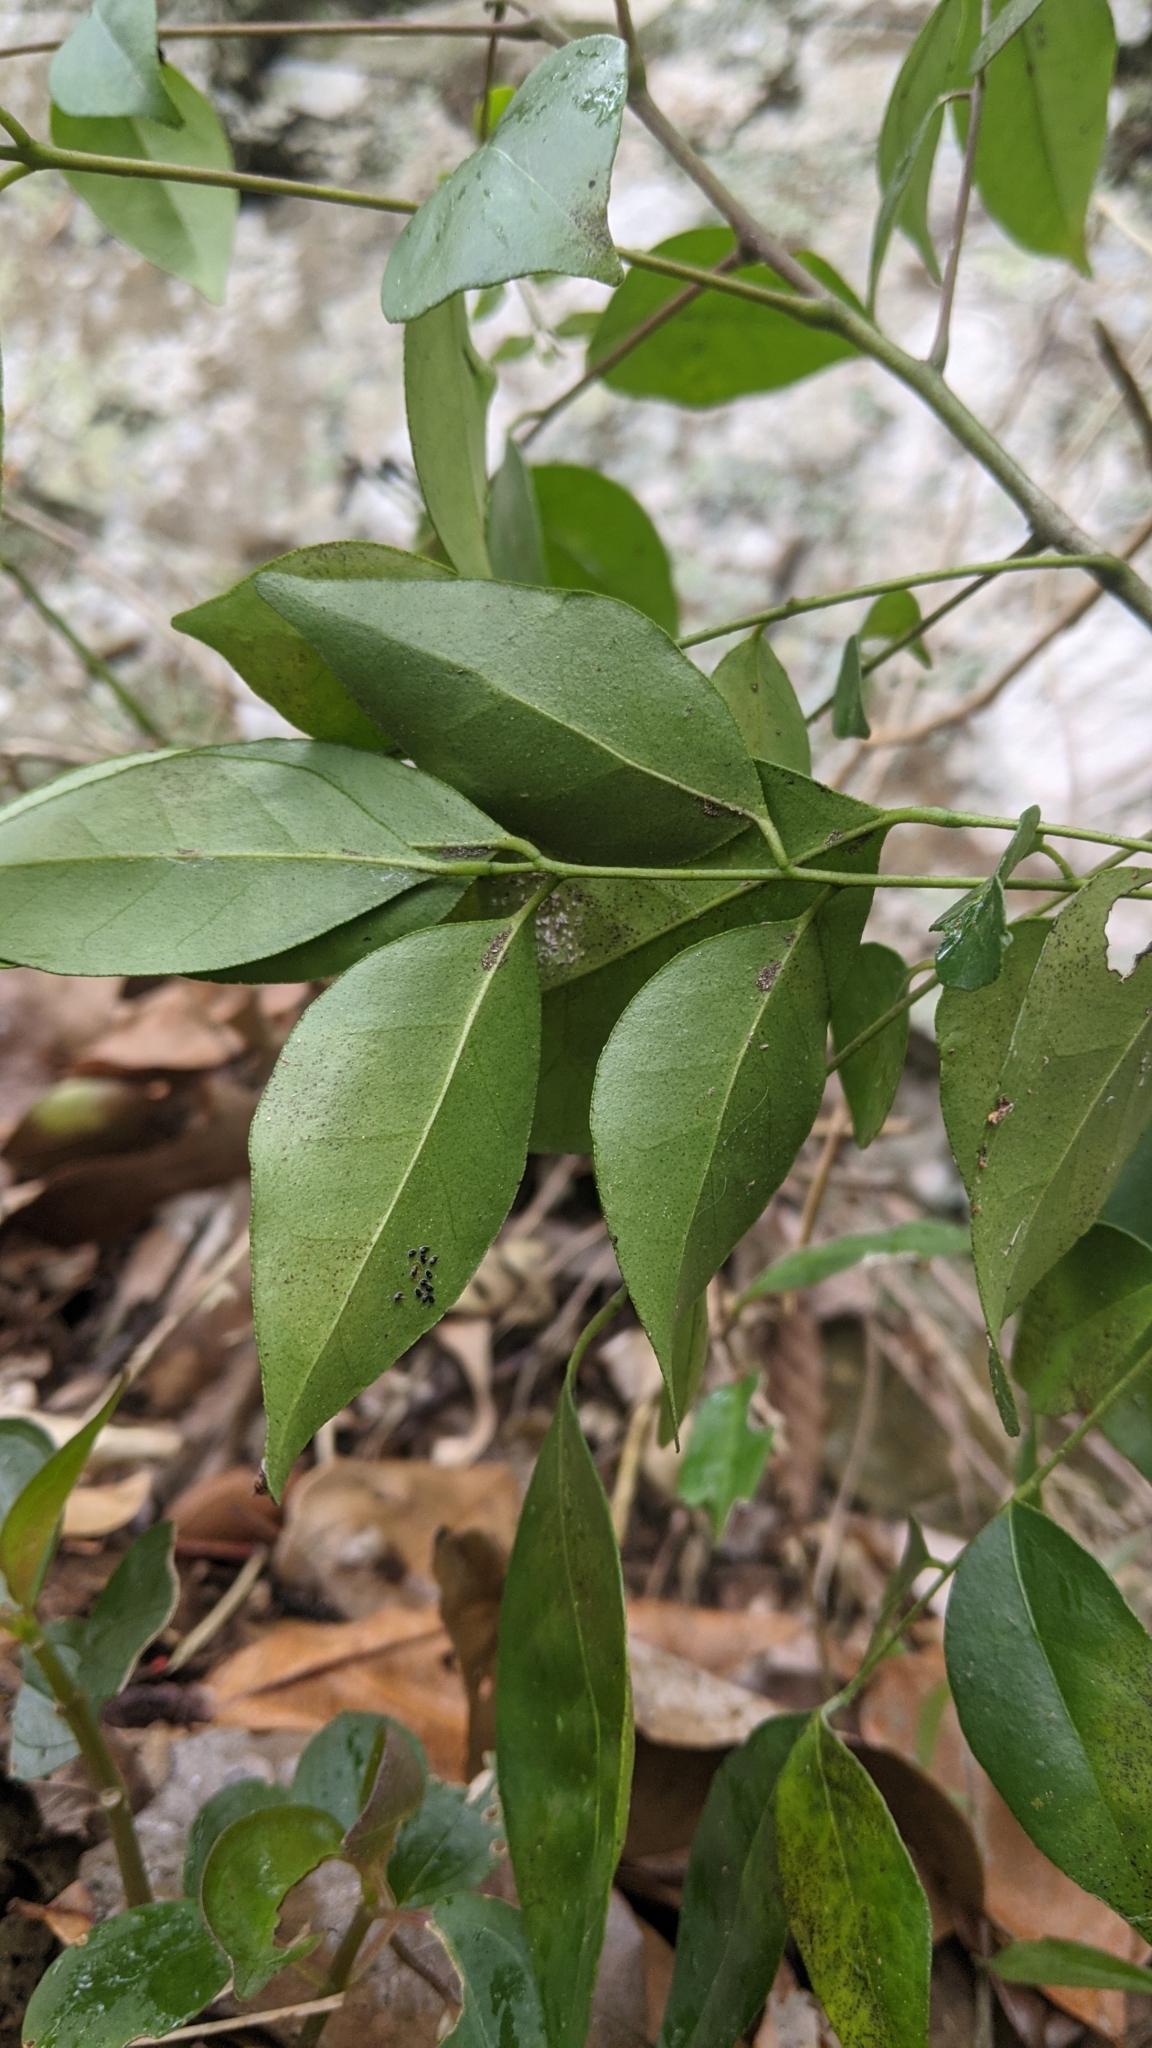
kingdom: Plantae
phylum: Tracheophyta
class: Magnoliopsida
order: Sapindales
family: Rutaceae
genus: Murraya
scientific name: Murraya euchrestifolia
